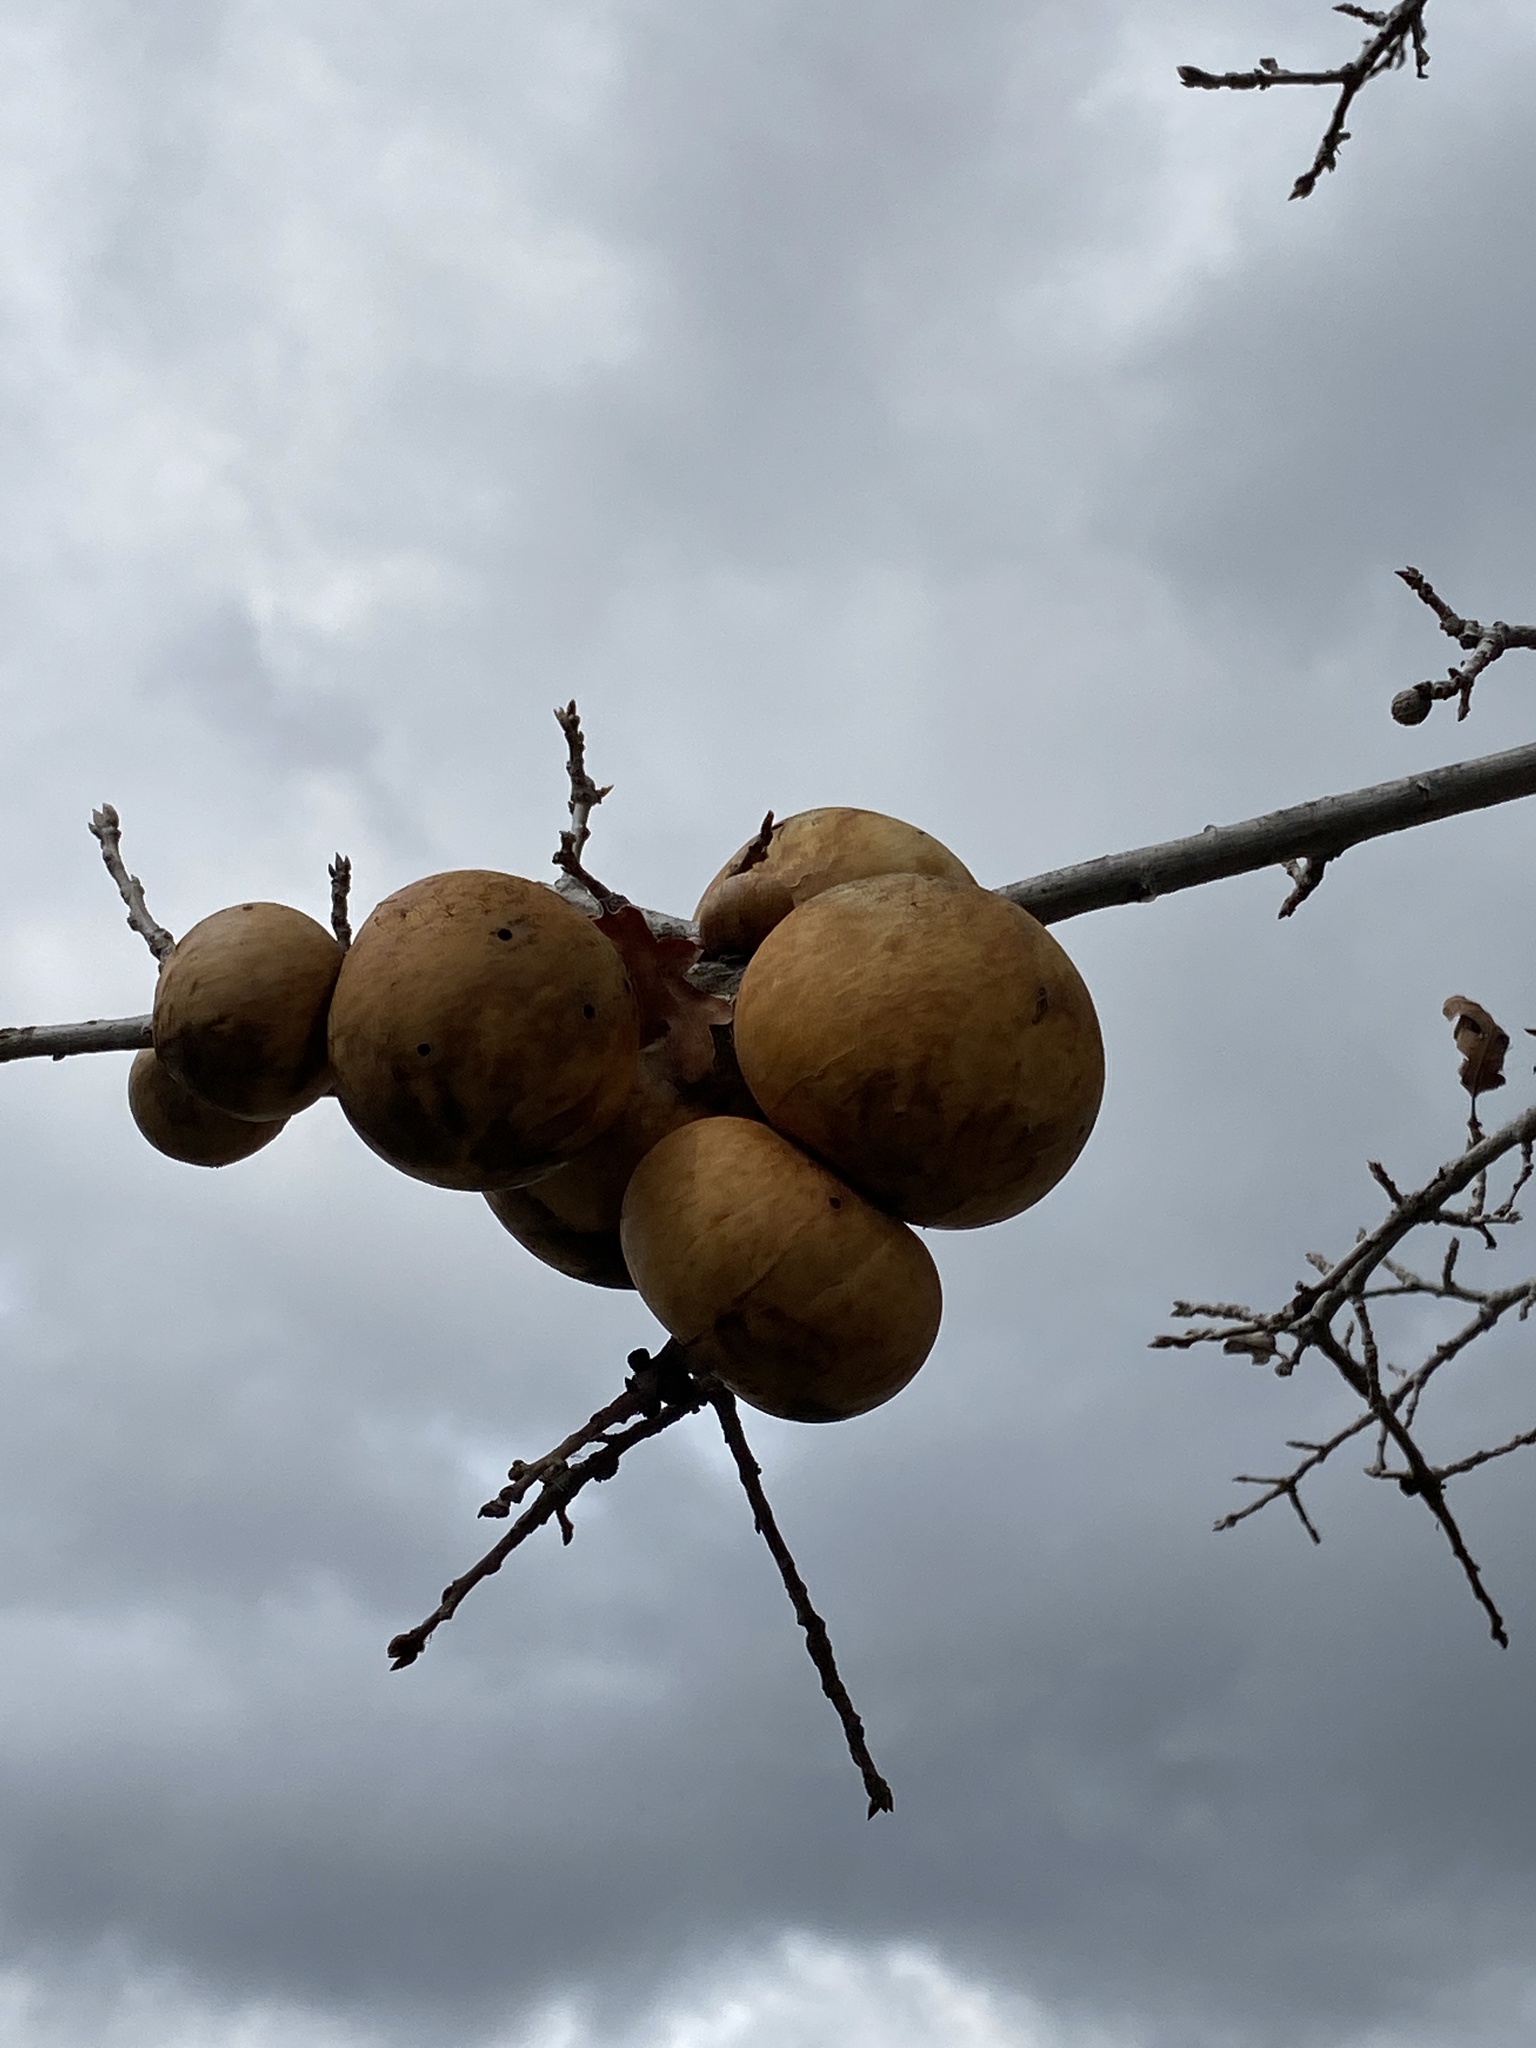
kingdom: Animalia
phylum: Arthropoda
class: Insecta
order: Hymenoptera
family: Cynipidae
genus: Andricus
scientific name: Andricus quercuscalifornicus
